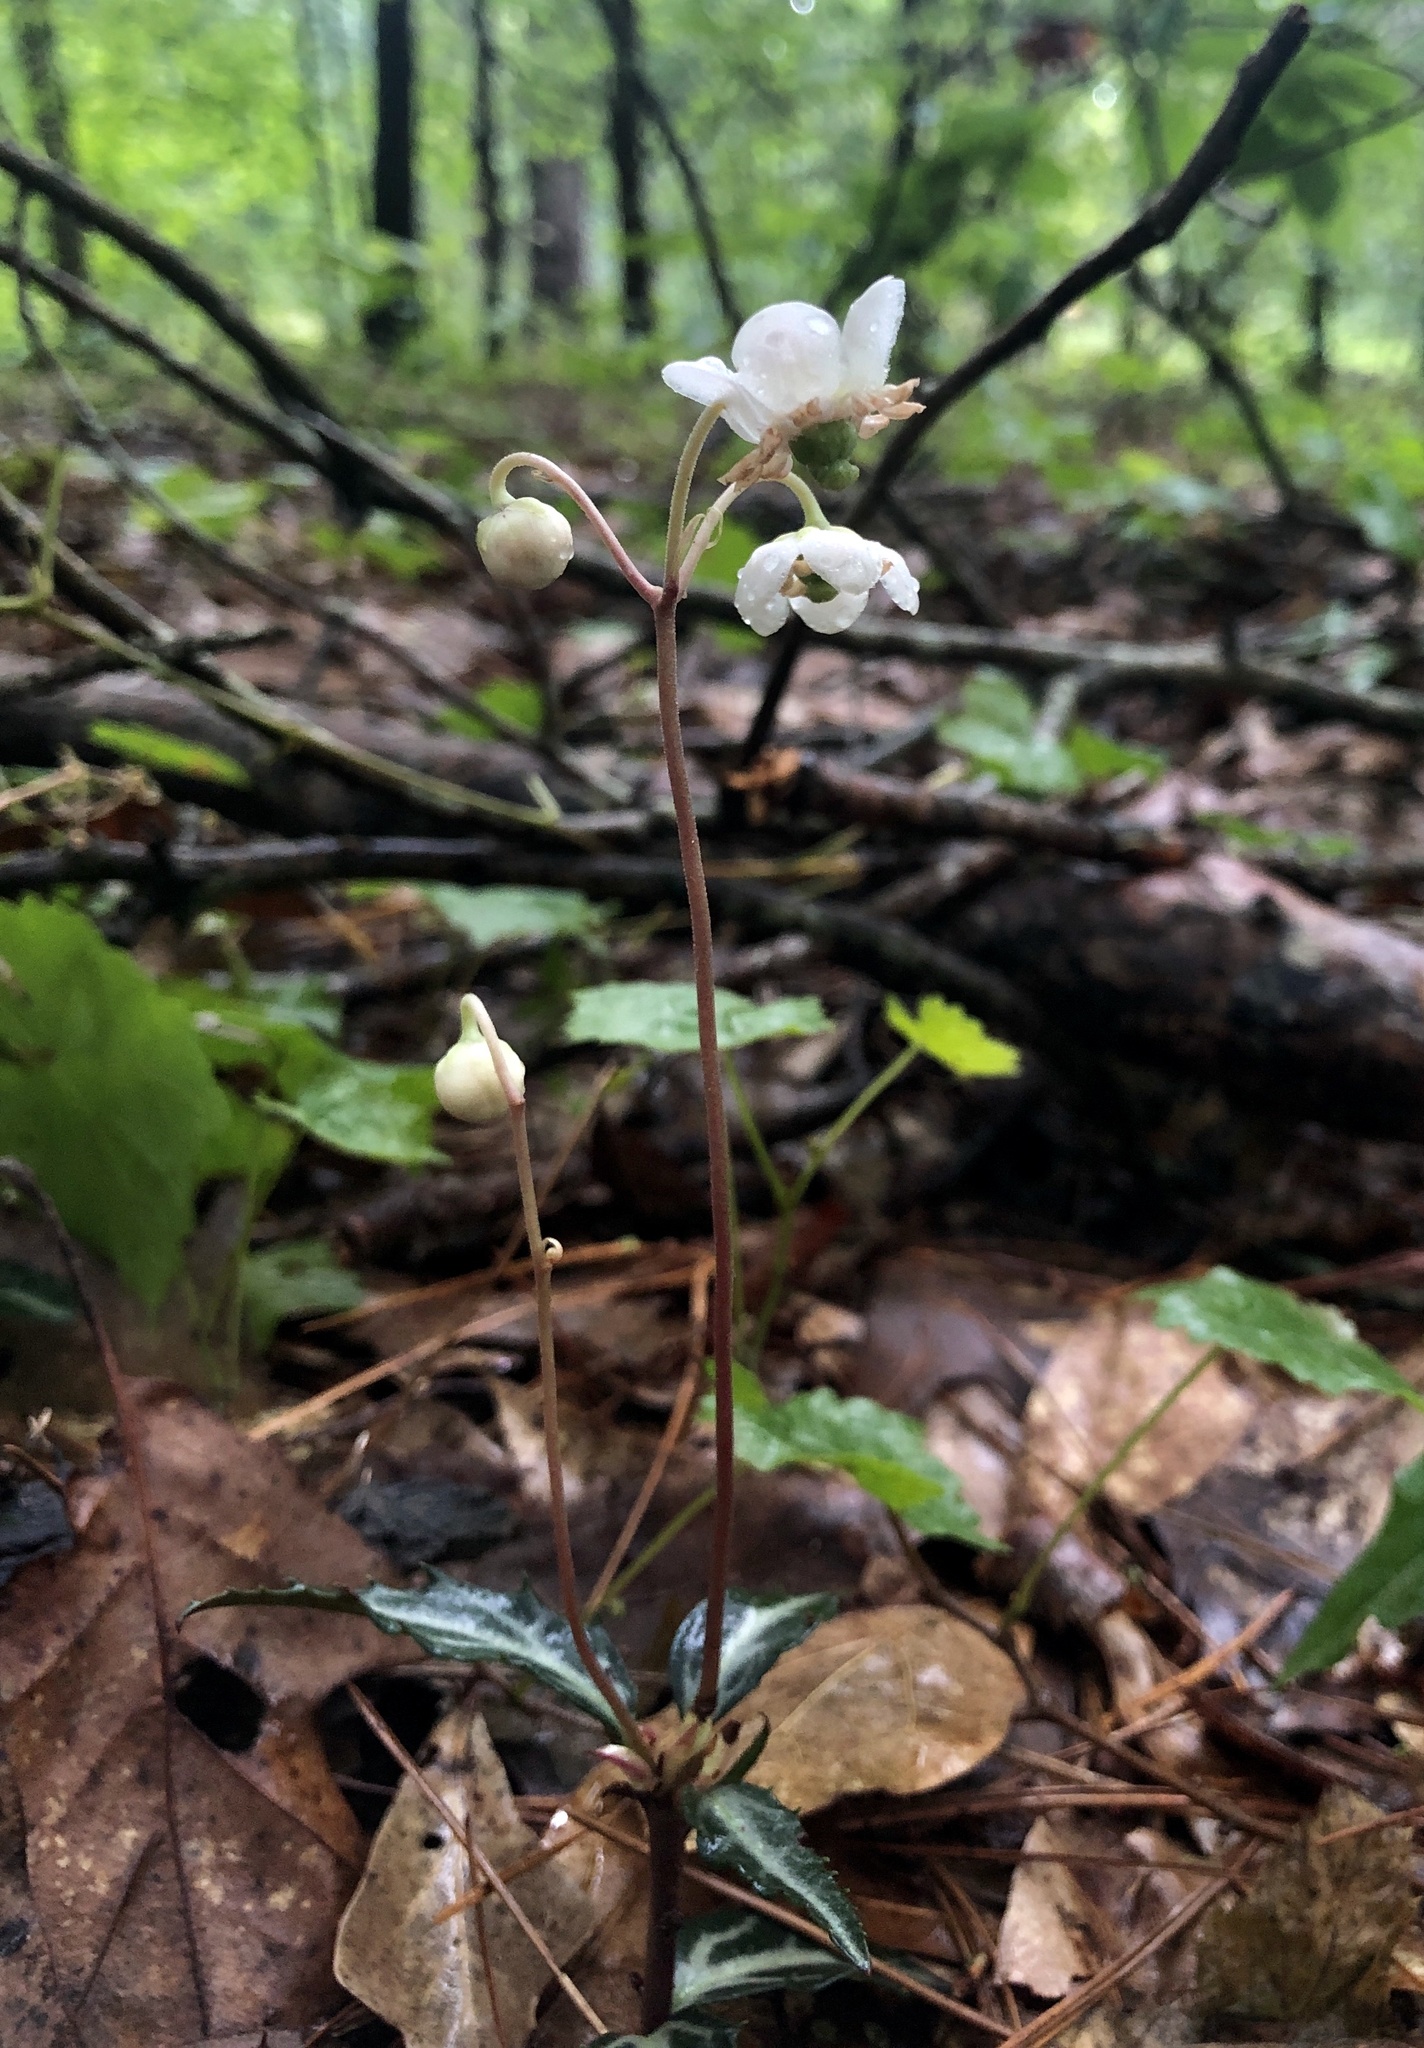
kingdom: Plantae
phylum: Tracheophyta
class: Magnoliopsida
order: Ericales
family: Ericaceae
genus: Chimaphila
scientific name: Chimaphila maculata
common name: Spotted pipsissewa
